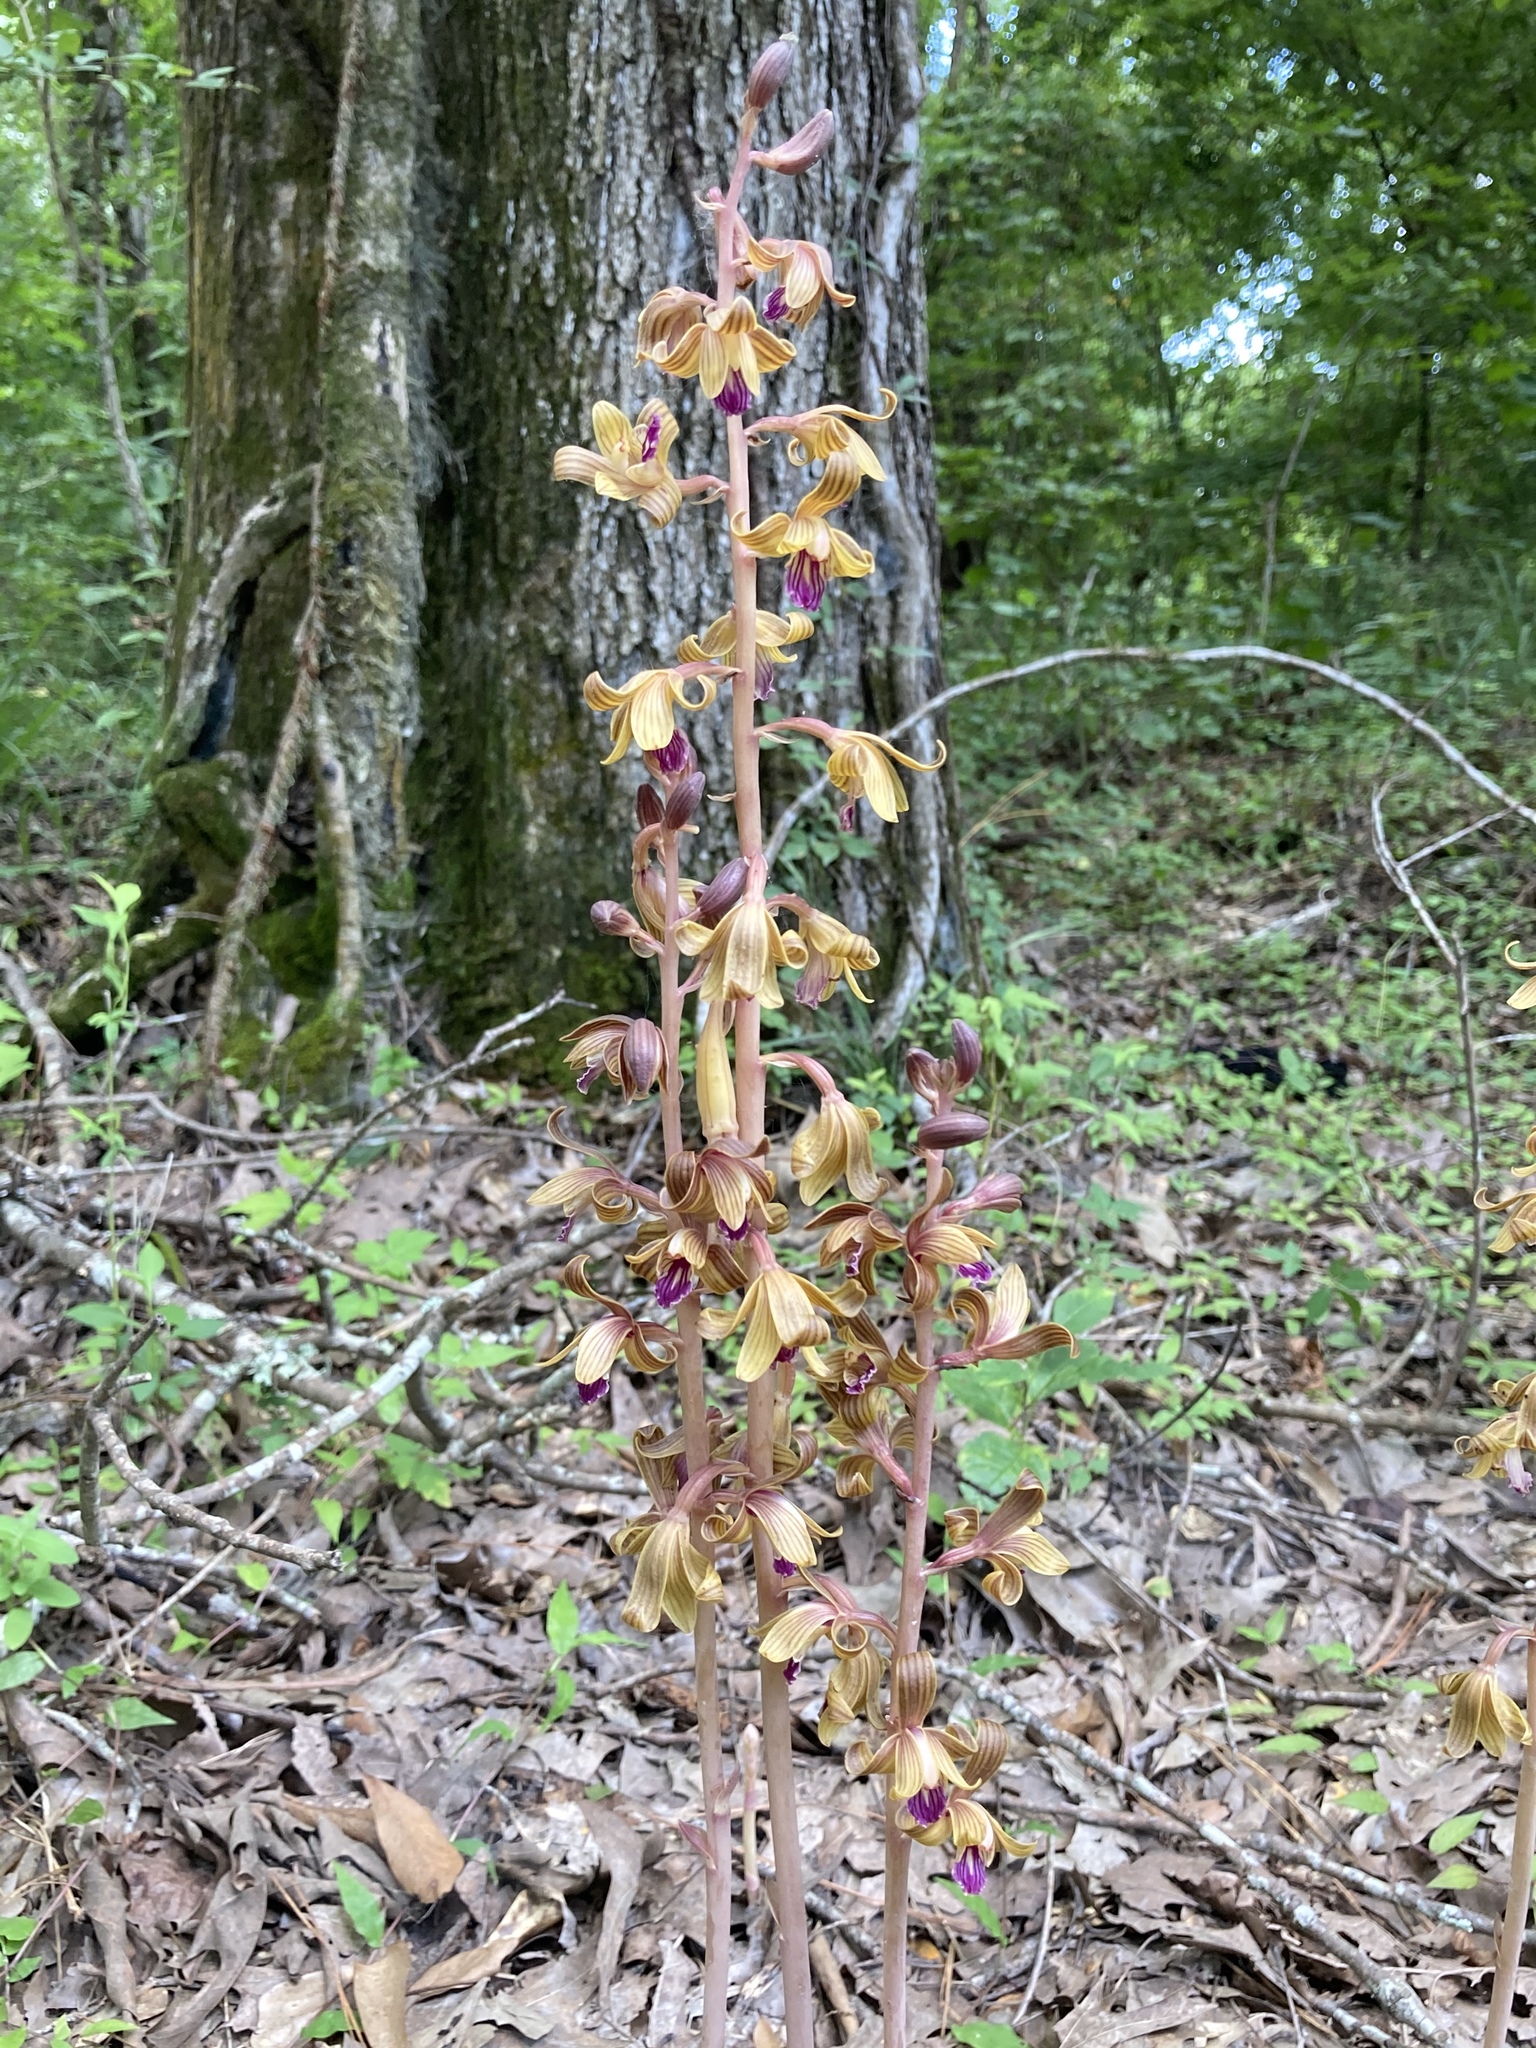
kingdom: Plantae
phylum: Tracheophyta
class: Liliopsida
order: Asparagales
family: Orchidaceae
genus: Bletia
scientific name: Bletia spicata
